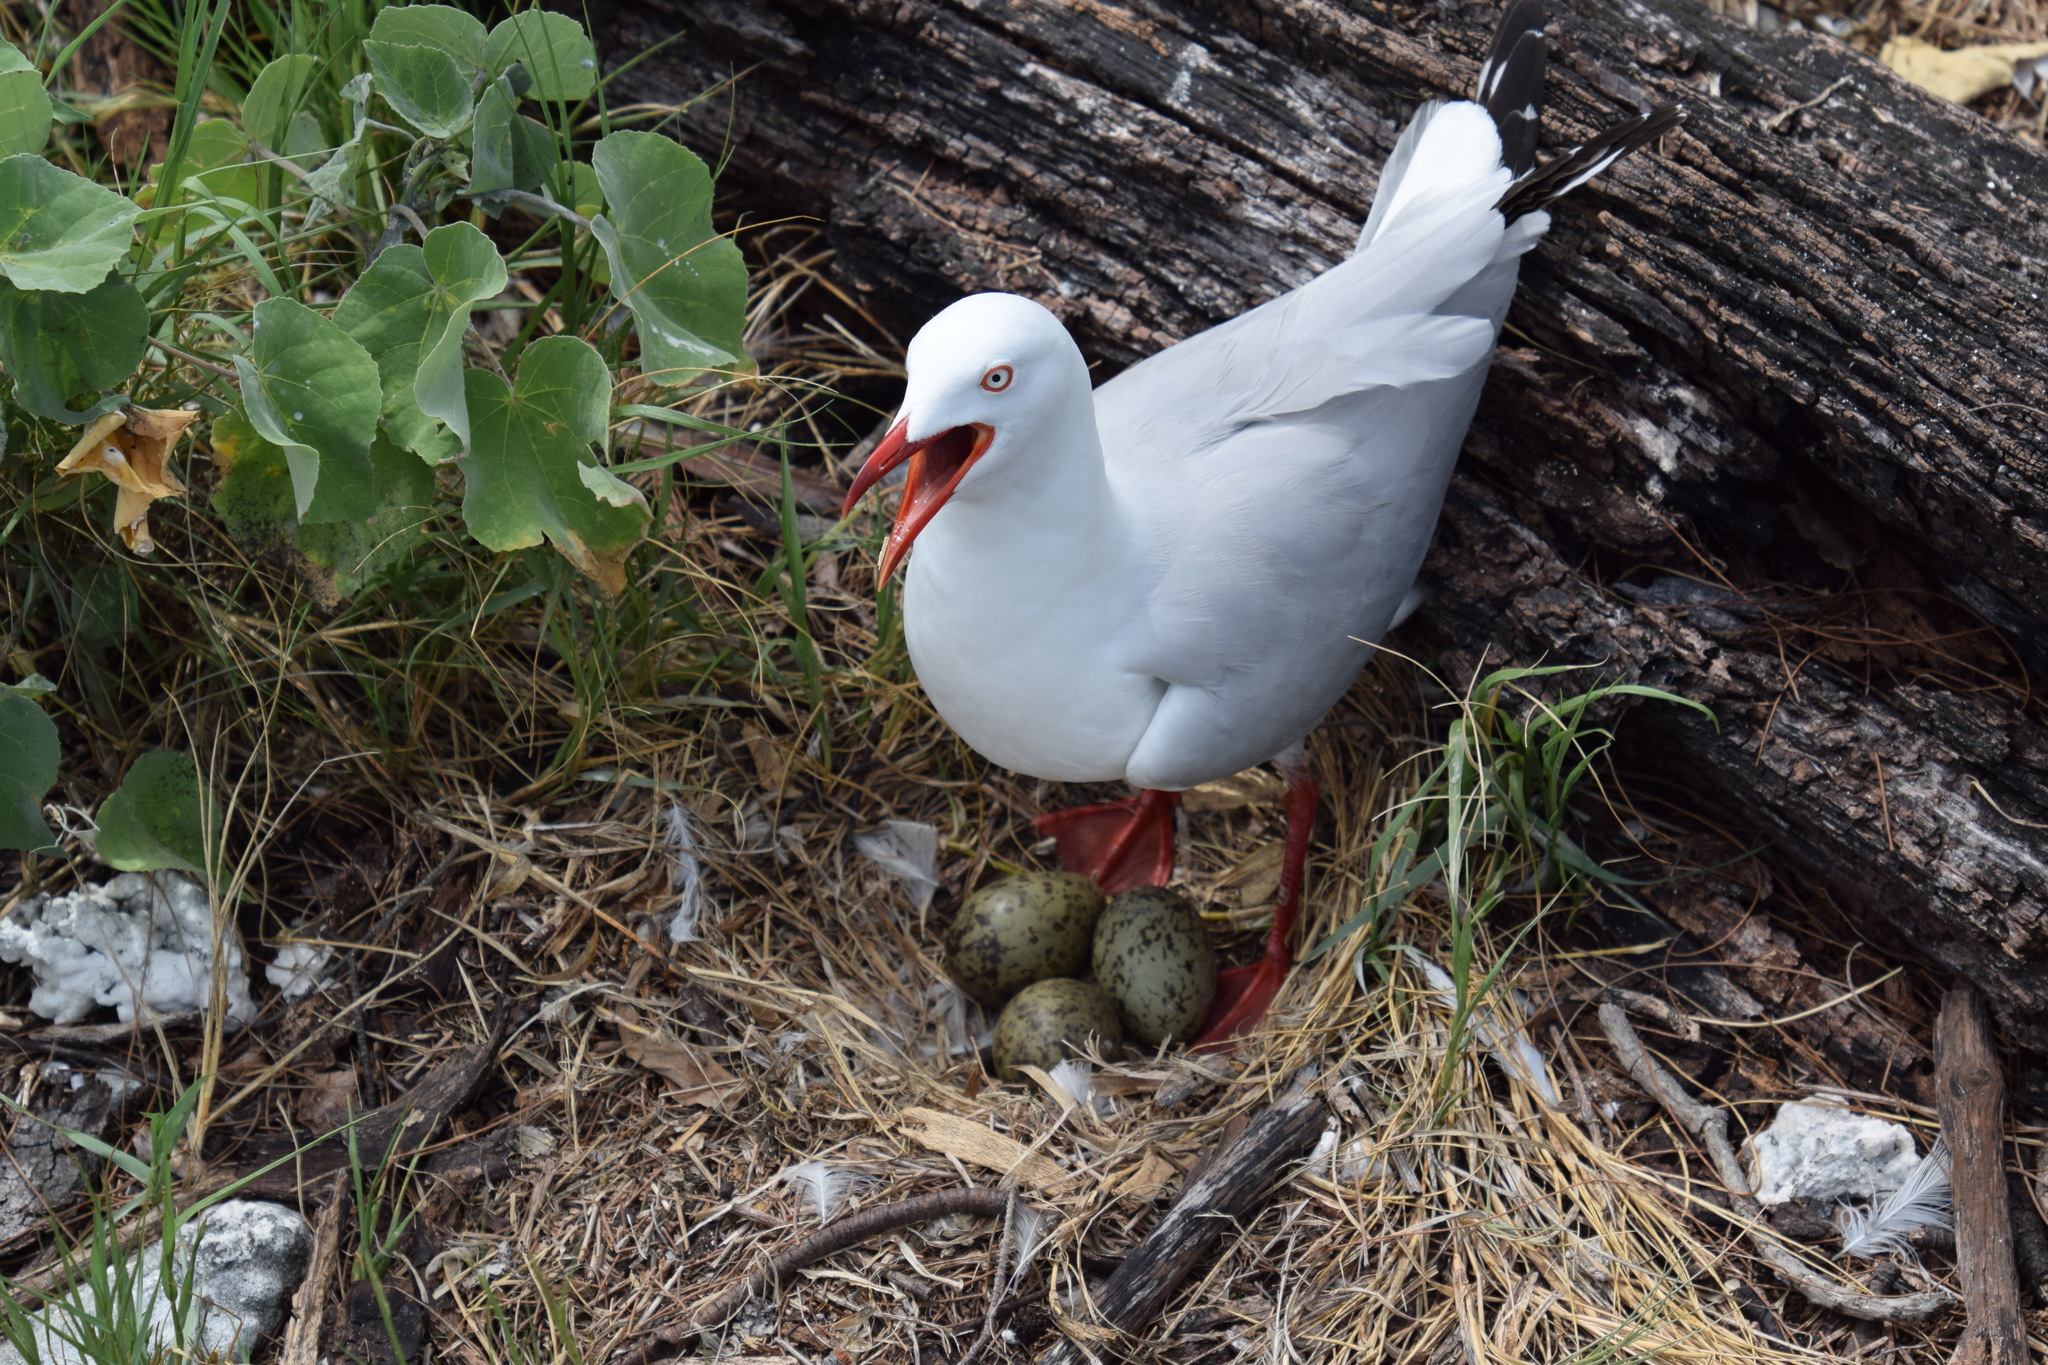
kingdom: Animalia
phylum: Chordata
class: Aves
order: Charadriiformes
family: Laridae
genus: Chroicocephalus
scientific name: Chroicocephalus novaehollandiae
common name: Silver gull
